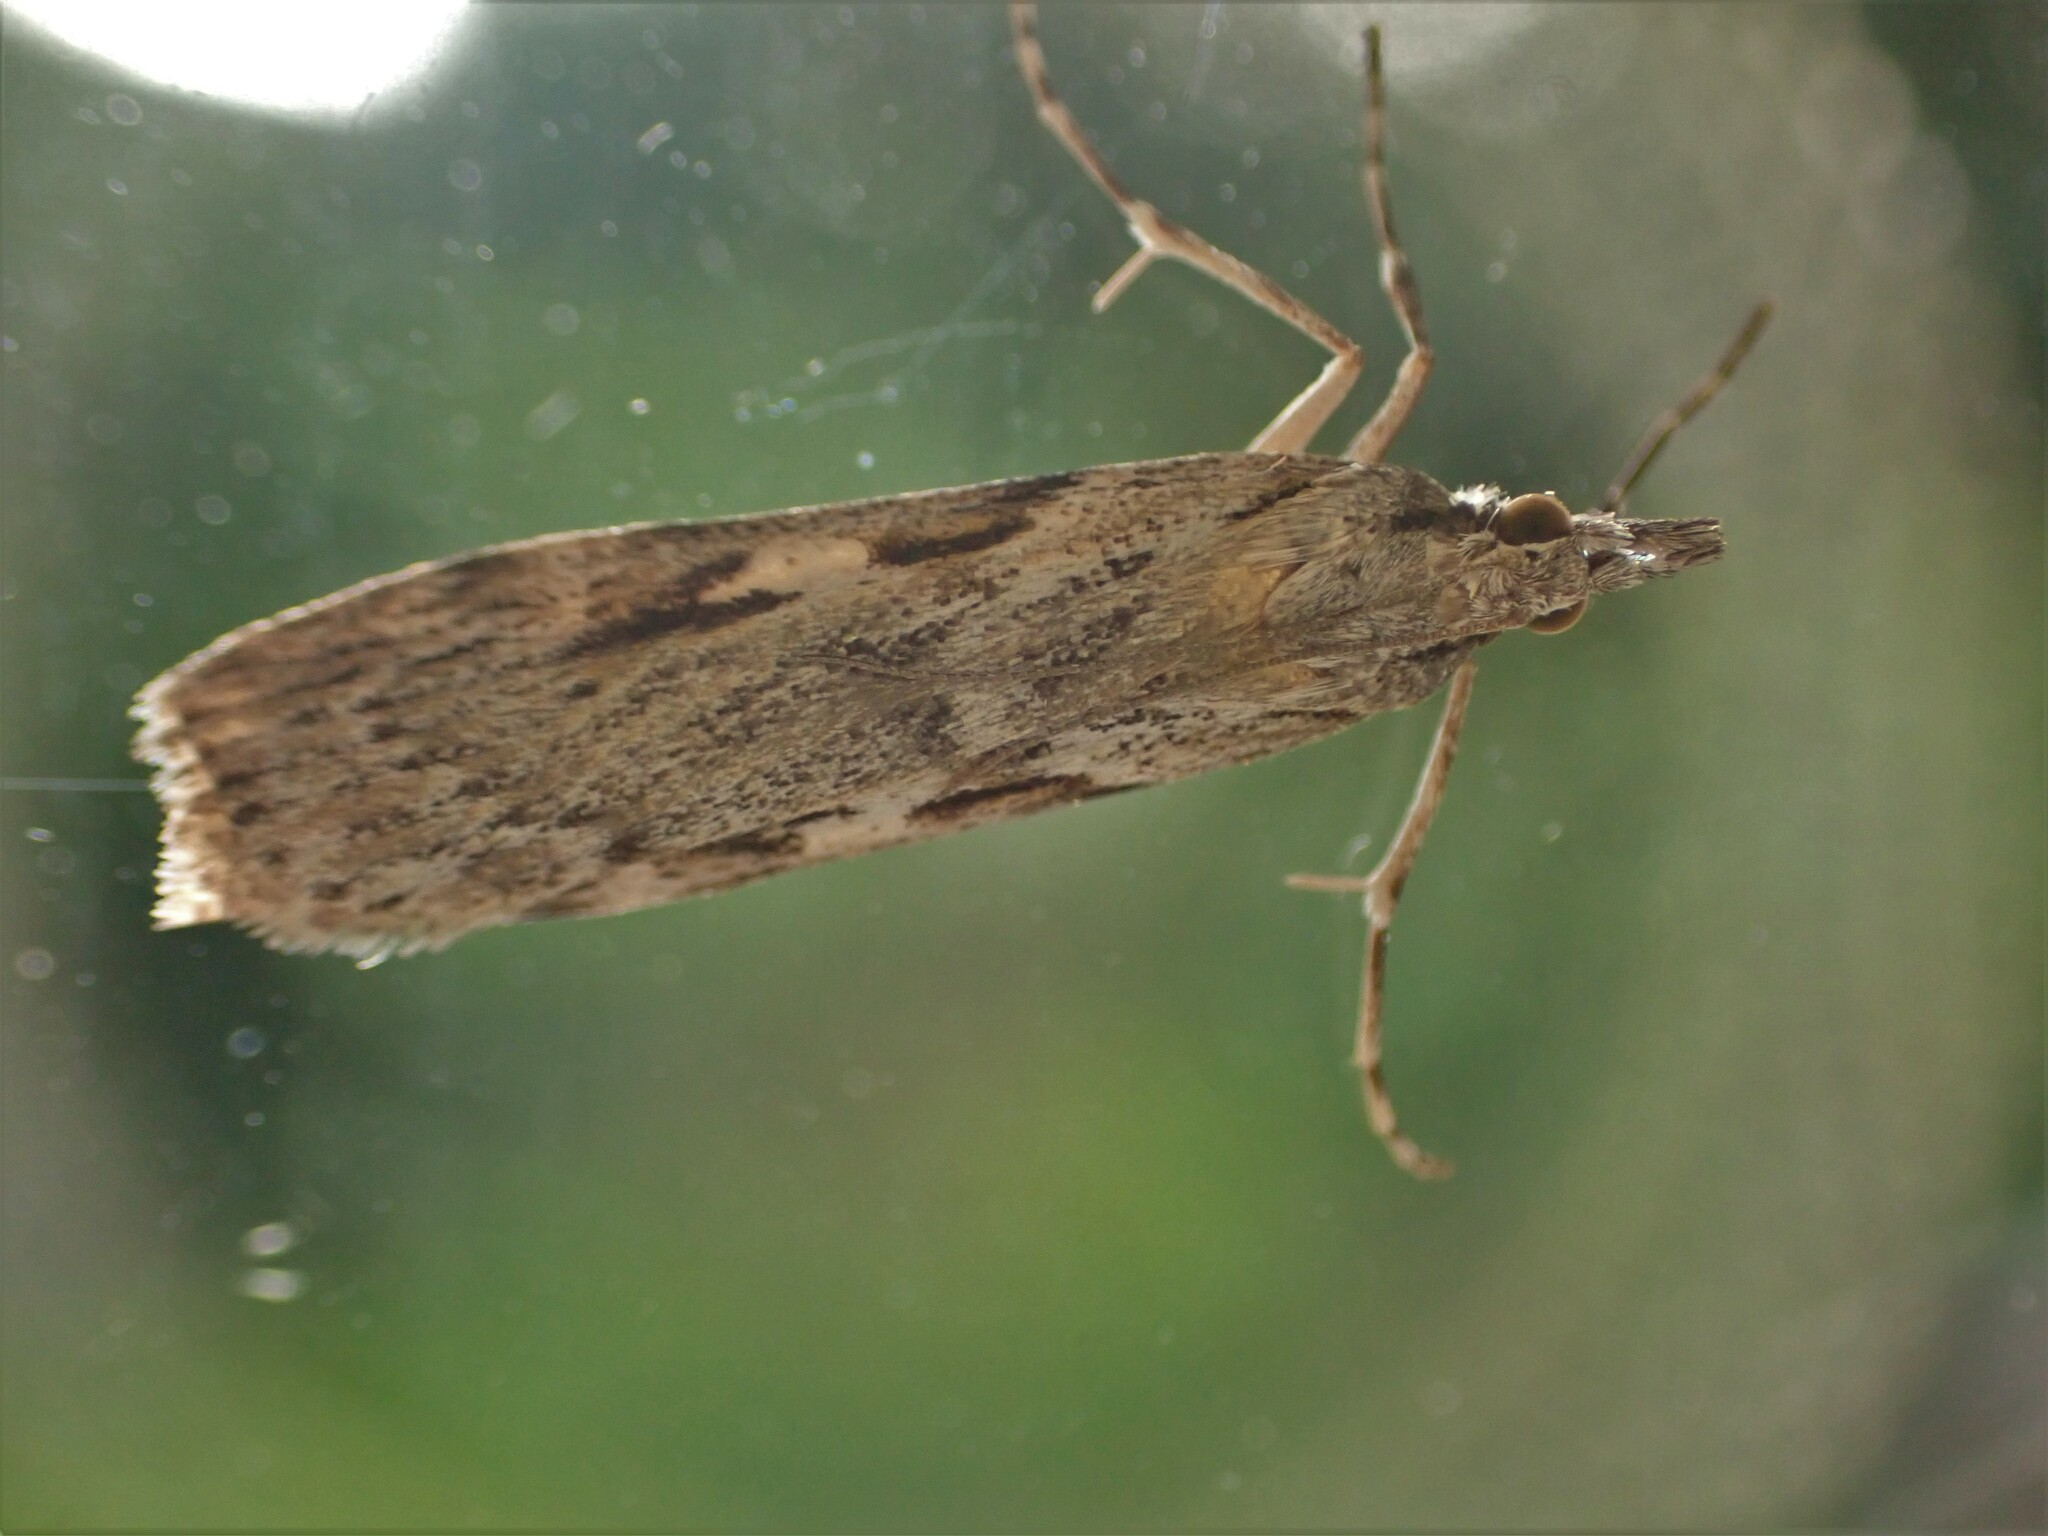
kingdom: Animalia
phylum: Arthropoda
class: Insecta
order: Lepidoptera
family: Crambidae
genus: Scoparia
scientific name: Scoparia halopis
